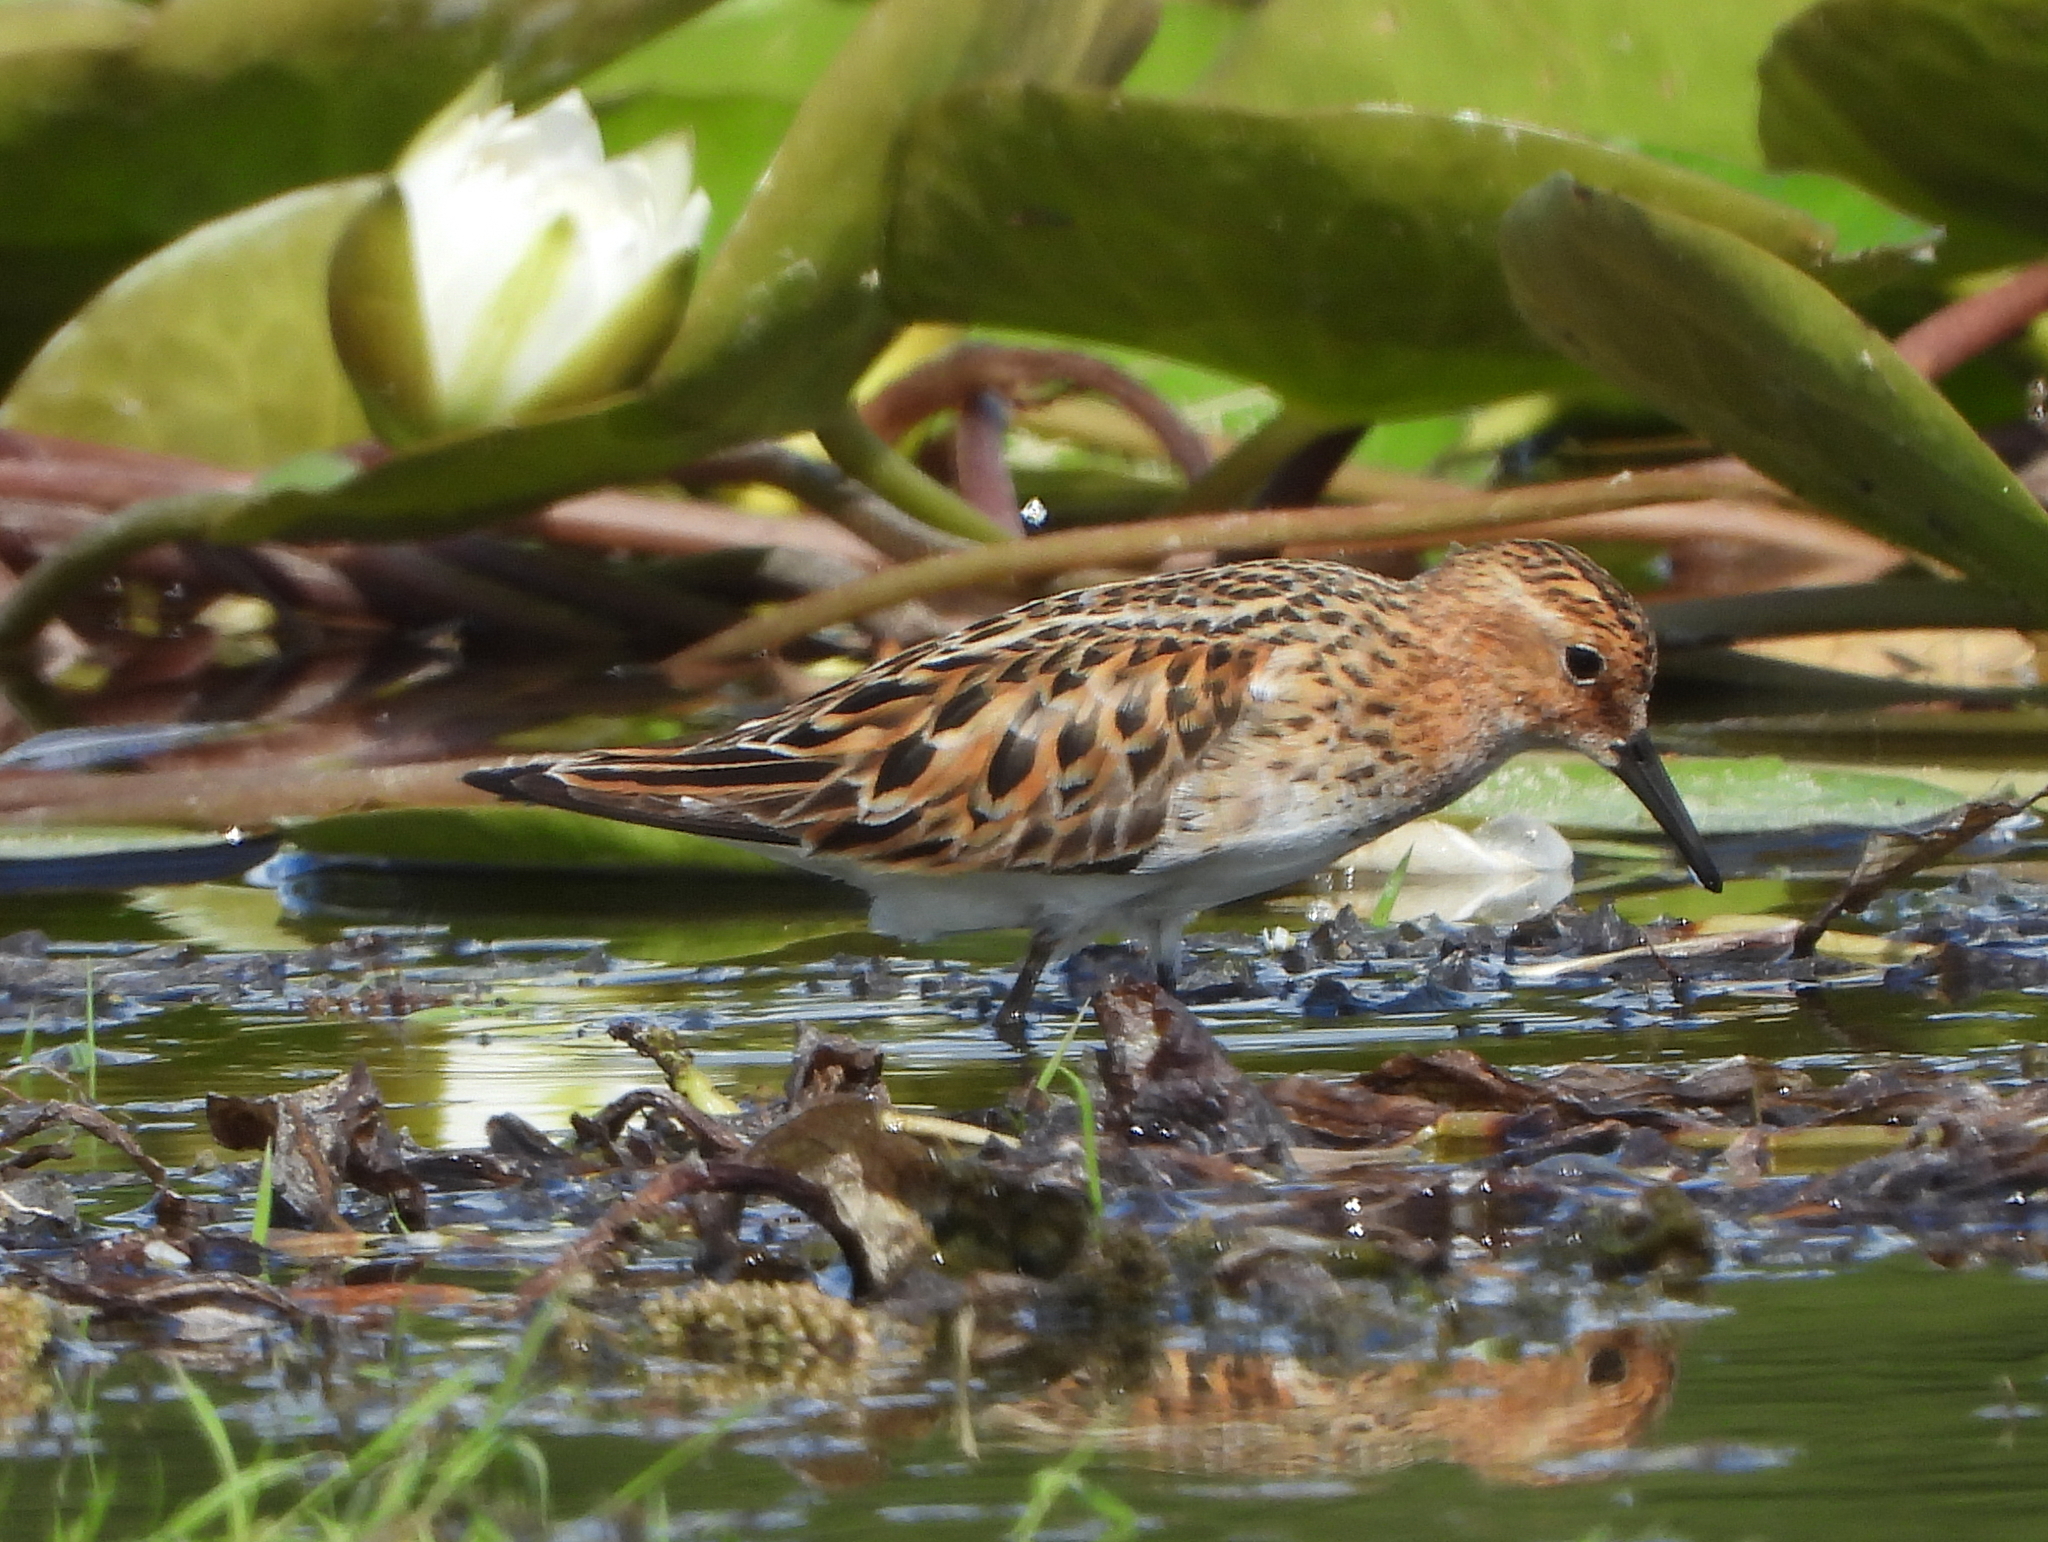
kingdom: Animalia
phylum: Chordata
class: Aves
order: Charadriiformes
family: Scolopacidae
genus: Calidris
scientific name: Calidris minuta
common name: Little stint
